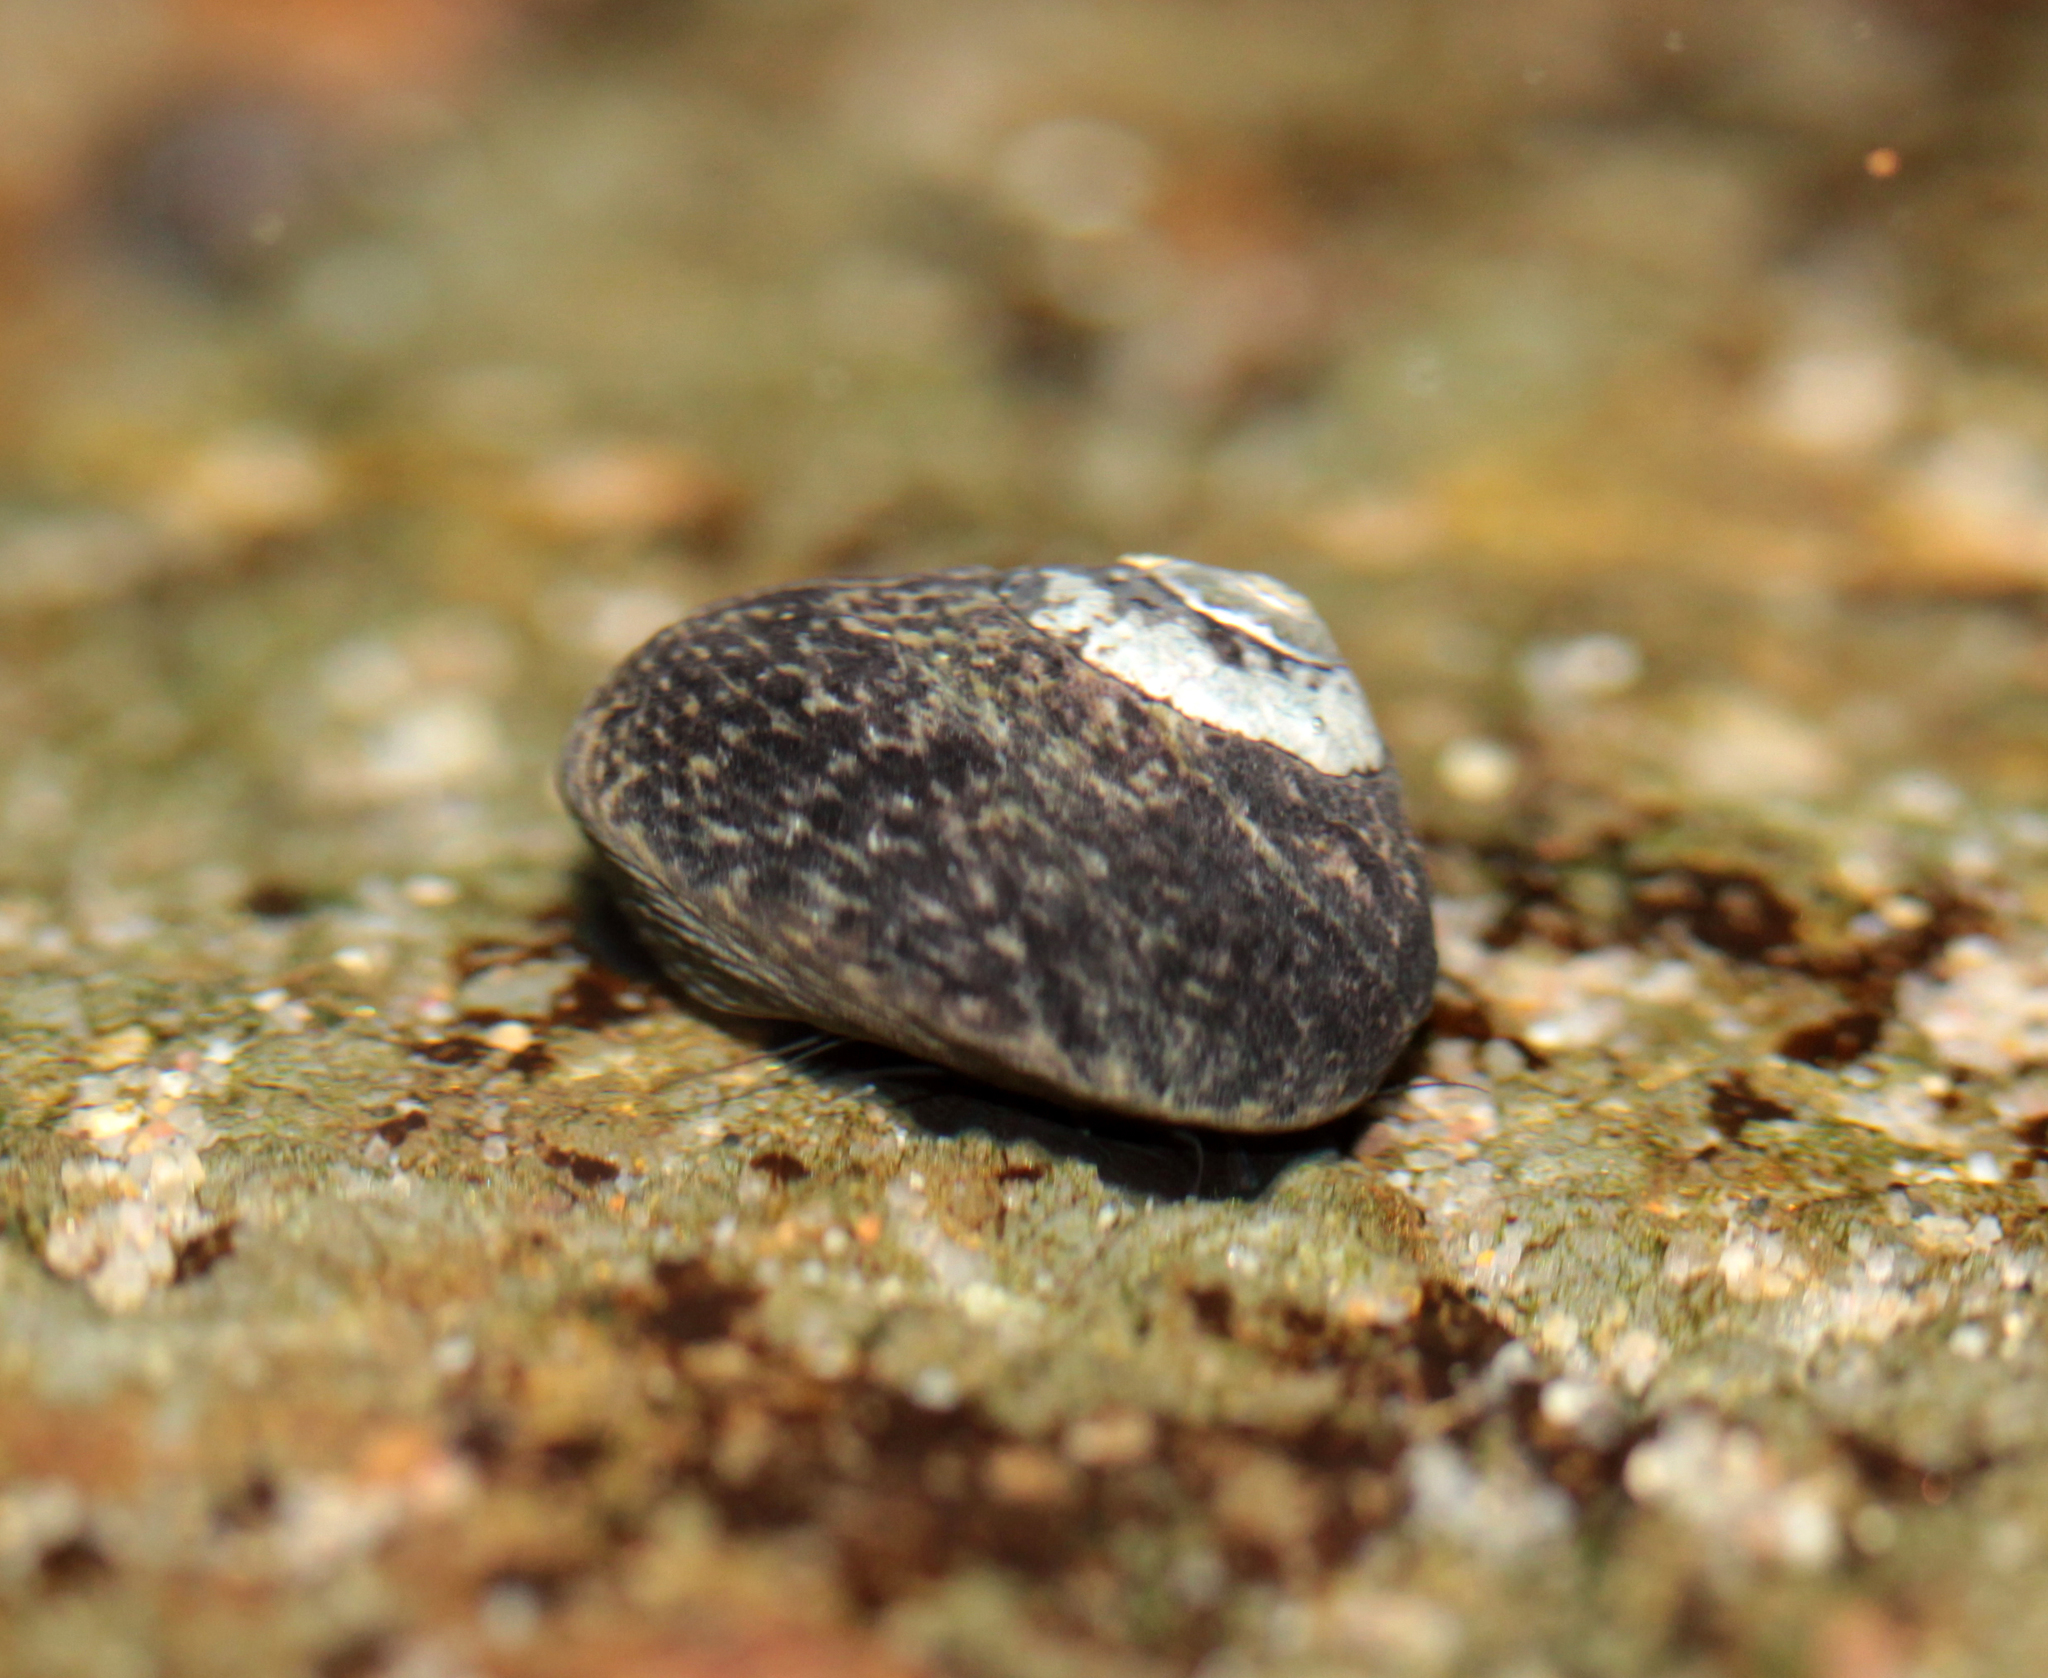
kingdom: Animalia
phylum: Mollusca
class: Gastropoda
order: Trochida
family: Tegulidae
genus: Tegula
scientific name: Tegula gallina
